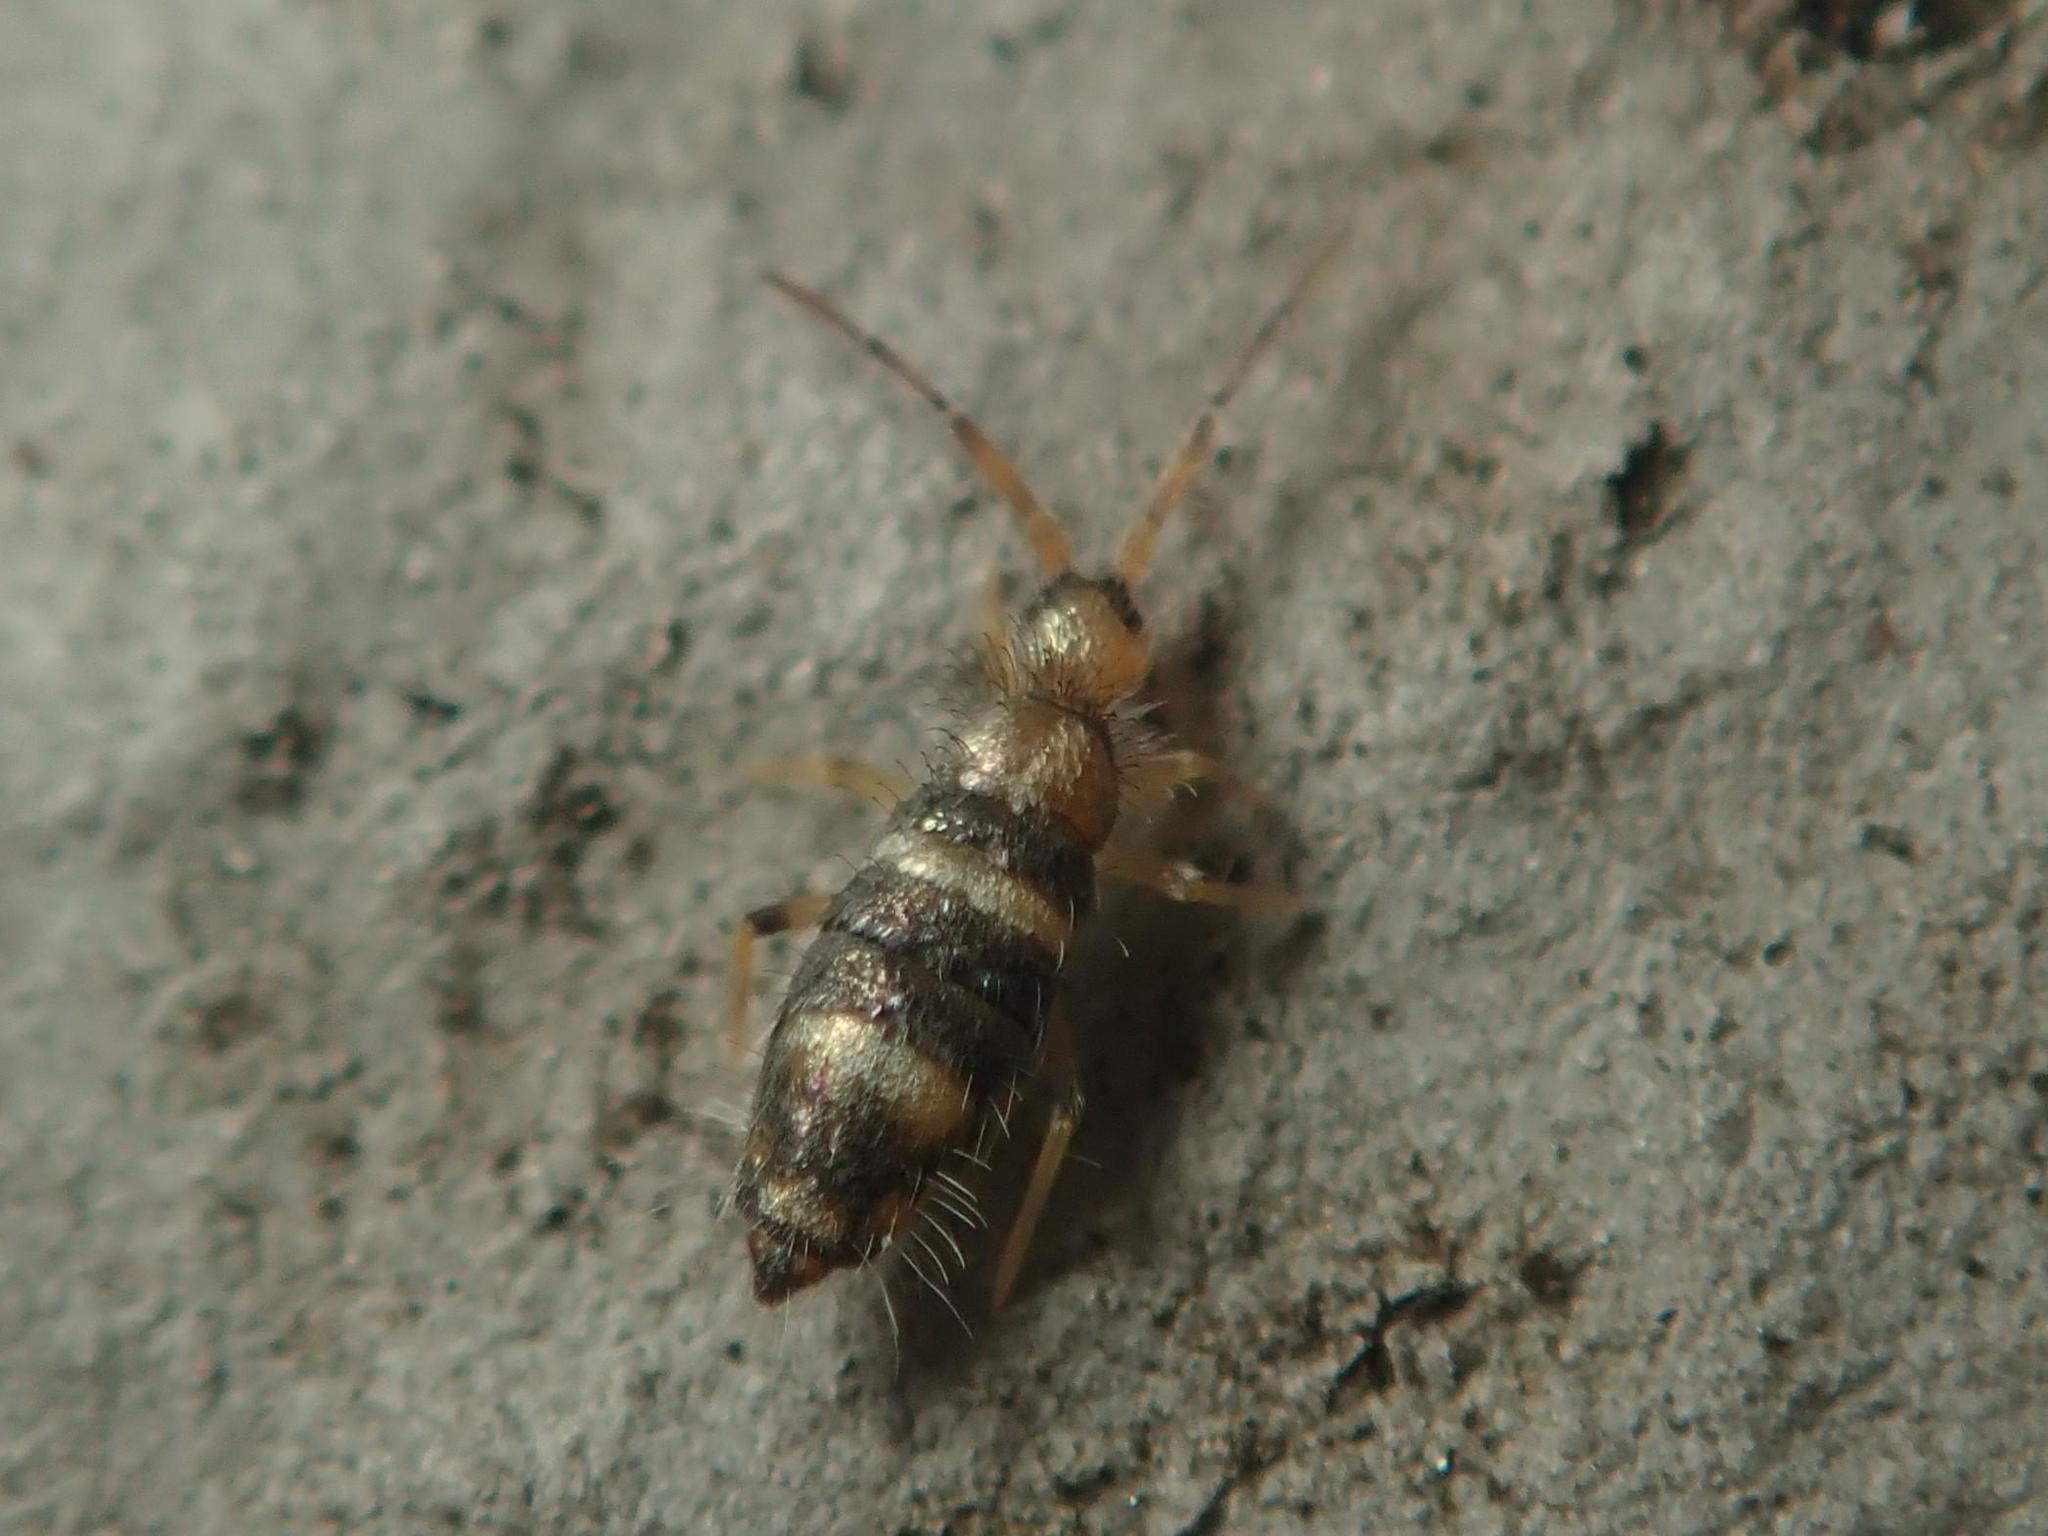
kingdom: Animalia
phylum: Arthropoda
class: Collembola
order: Entomobryomorpha
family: Entomobryidae
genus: Willowsia
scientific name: Willowsia platani
